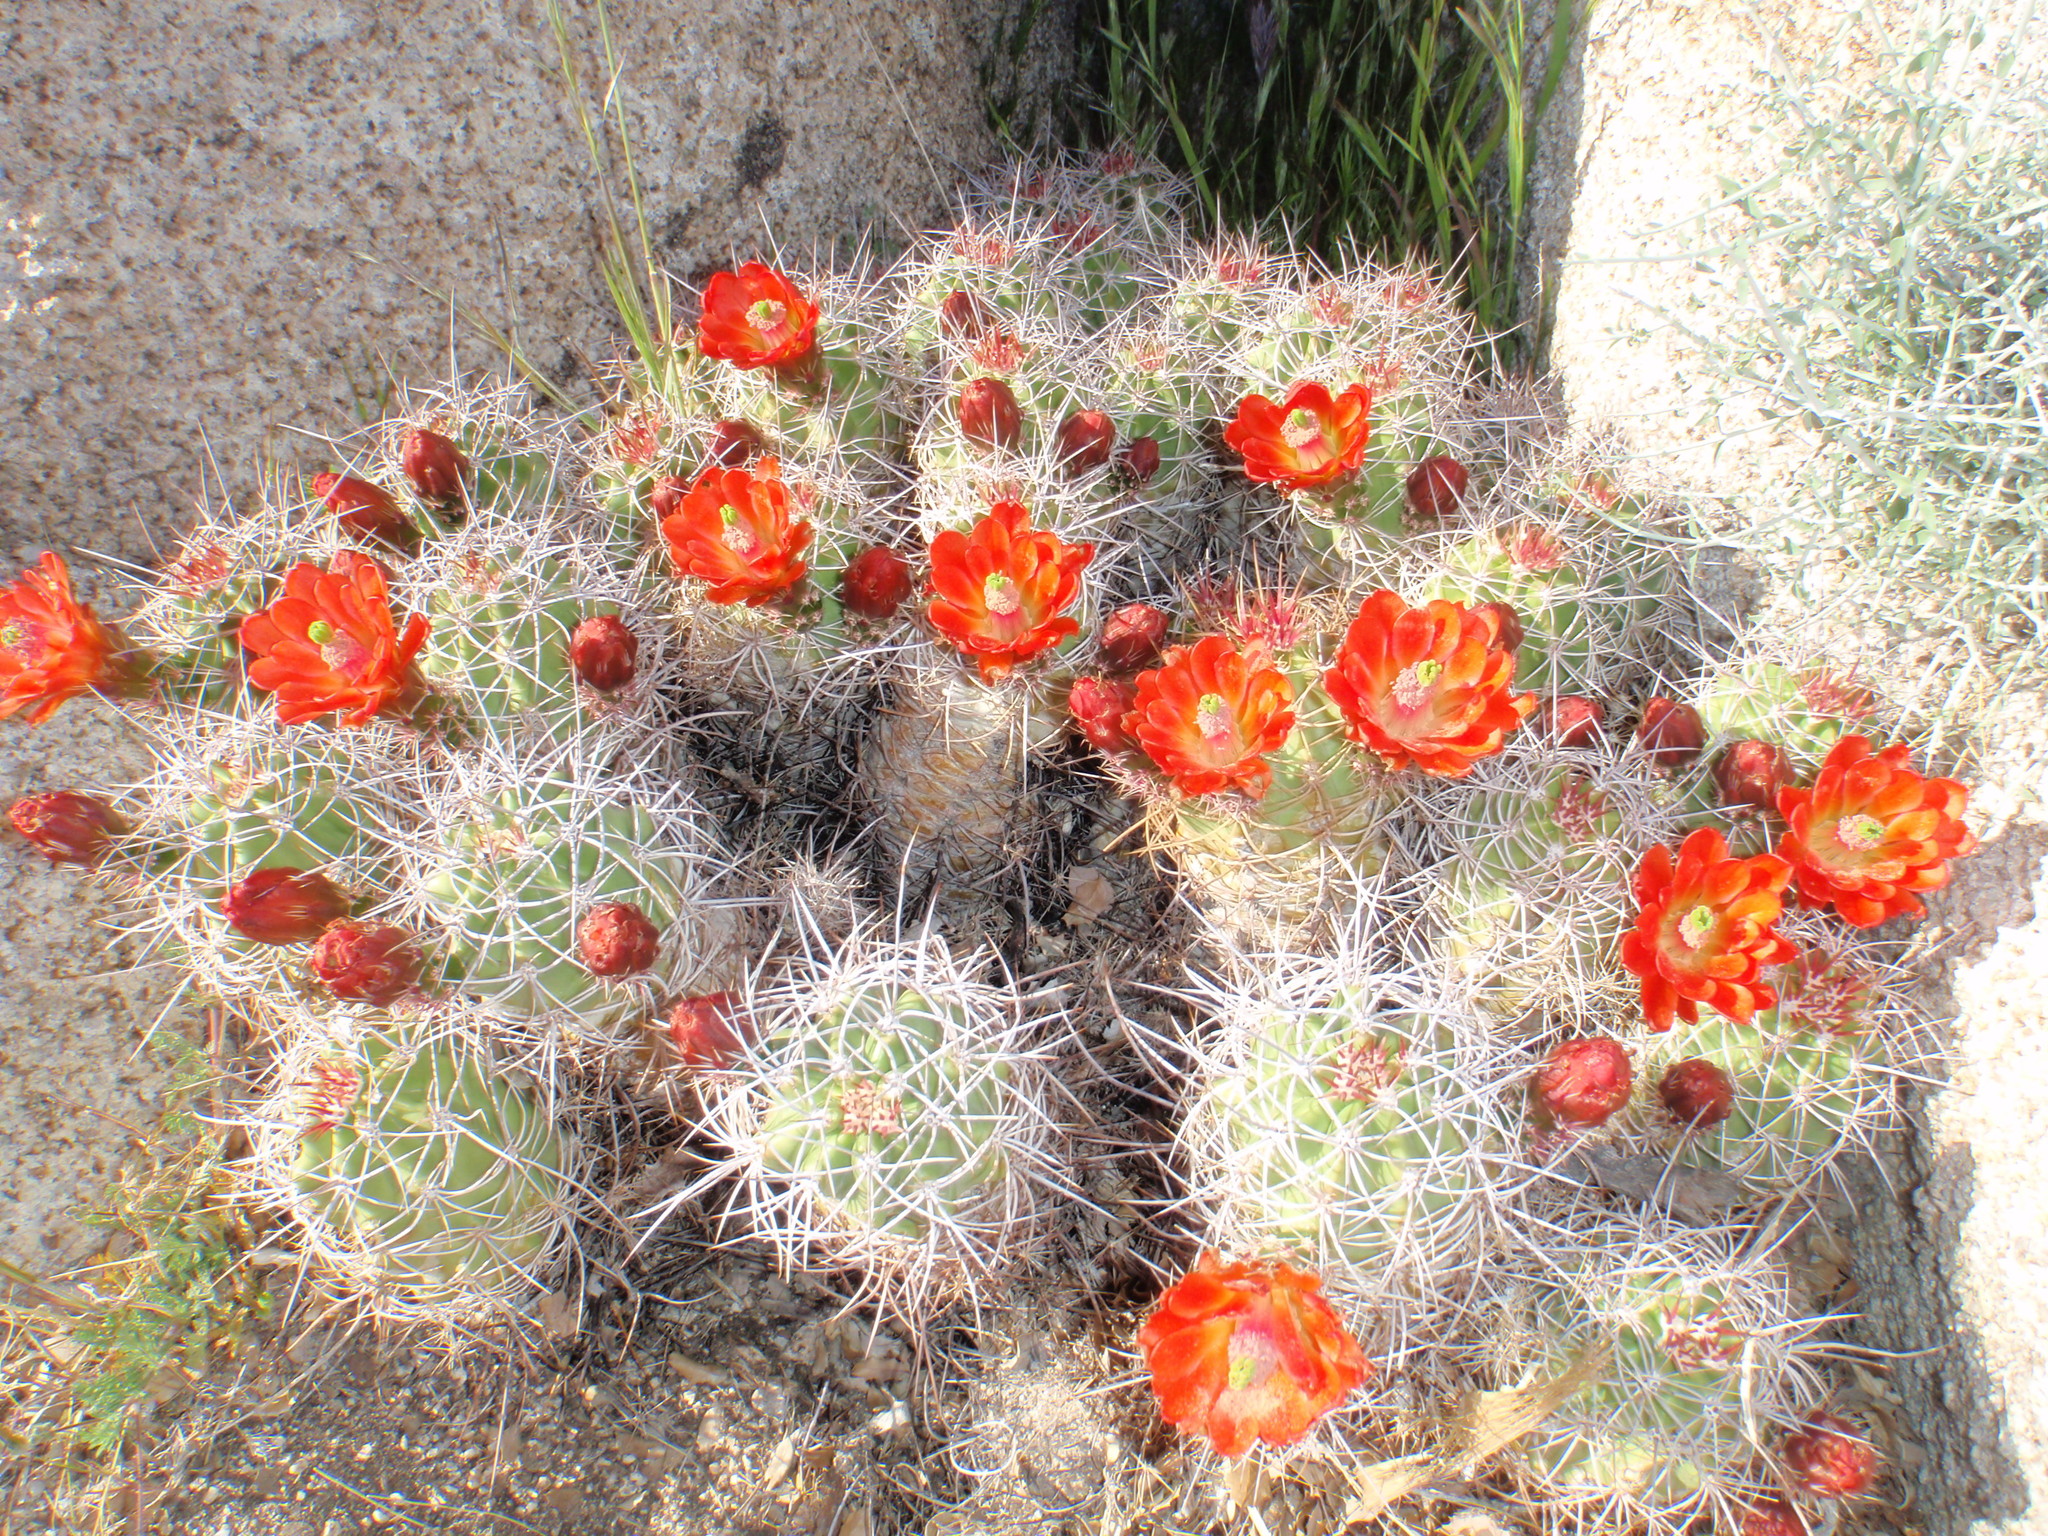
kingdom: Plantae
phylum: Tracheophyta
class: Magnoliopsida
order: Caryophyllales
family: Cactaceae
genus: Echinocereus
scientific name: Echinocereus triglochidiatus
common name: Claretcup hedgehog
